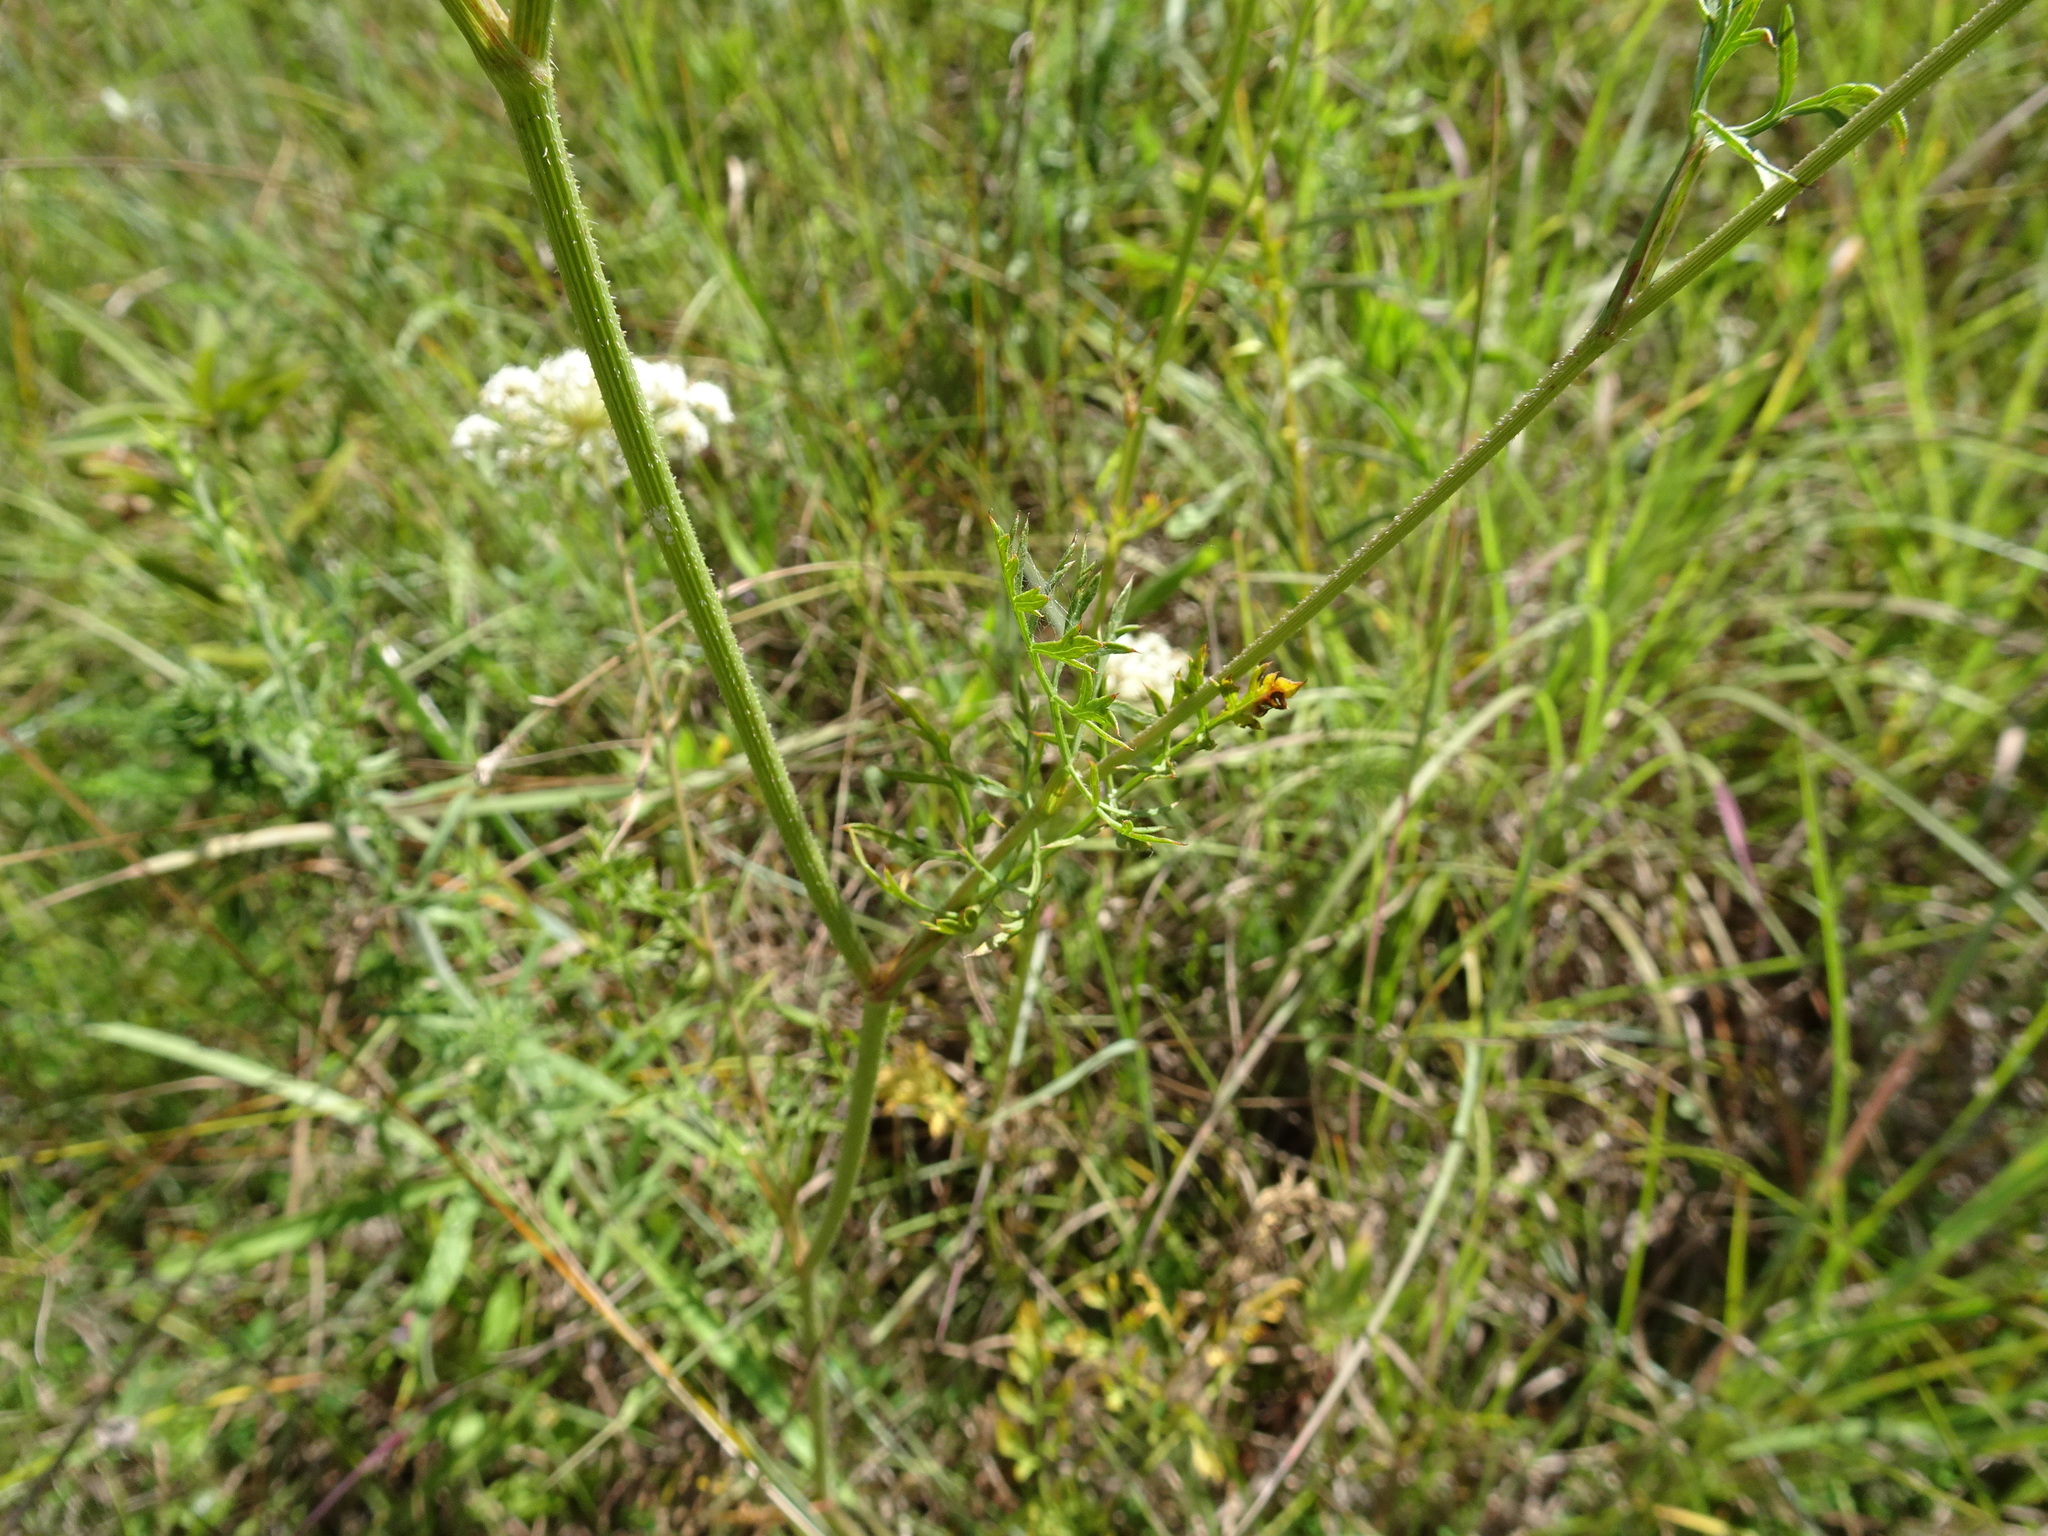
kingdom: Plantae
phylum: Tracheophyta
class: Magnoliopsida
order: Apiales
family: Apiaceae
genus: Daucus
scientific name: Daucus carota
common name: Wild carrot
